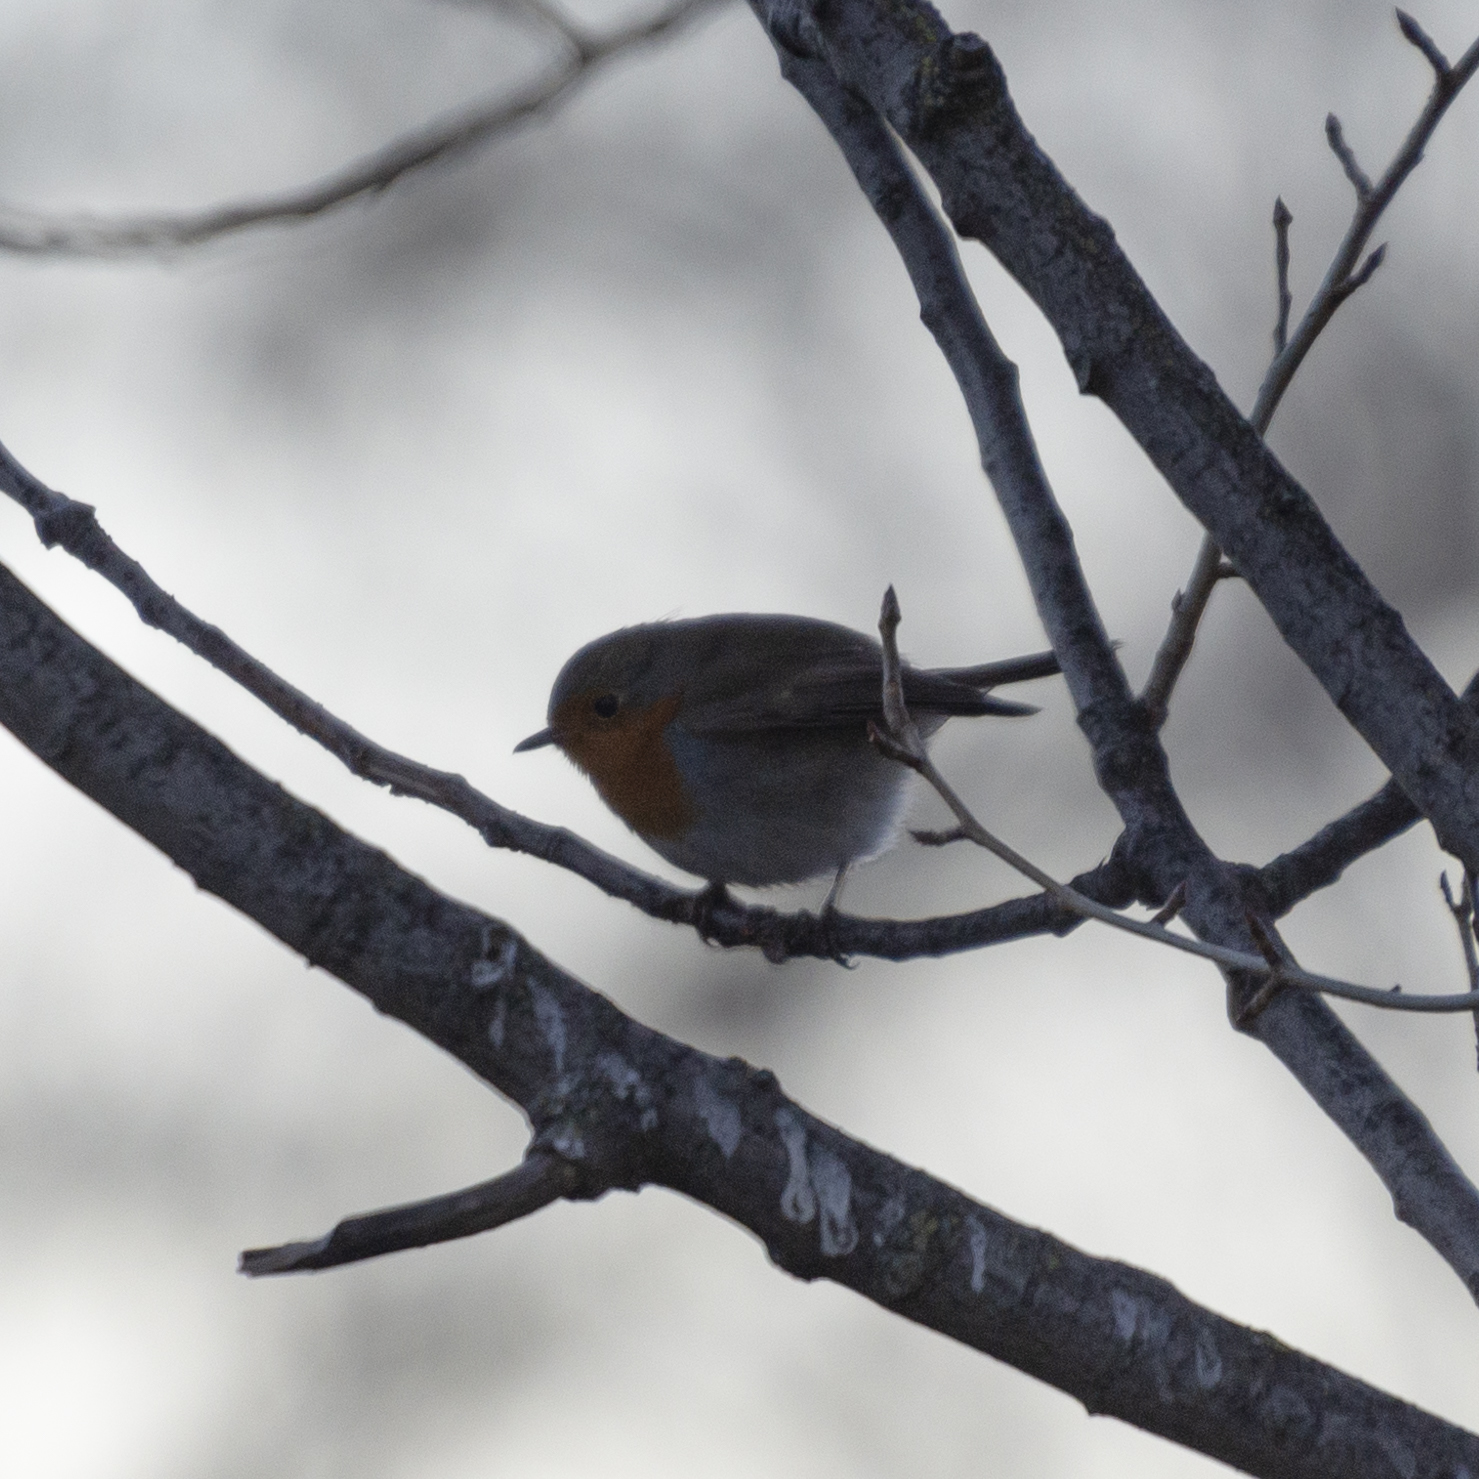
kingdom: Animalia
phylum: Chordata
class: Aves
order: Passeriformes
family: Muscicapidae
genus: Erithacus
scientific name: Erithacus rubecula
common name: European robin
